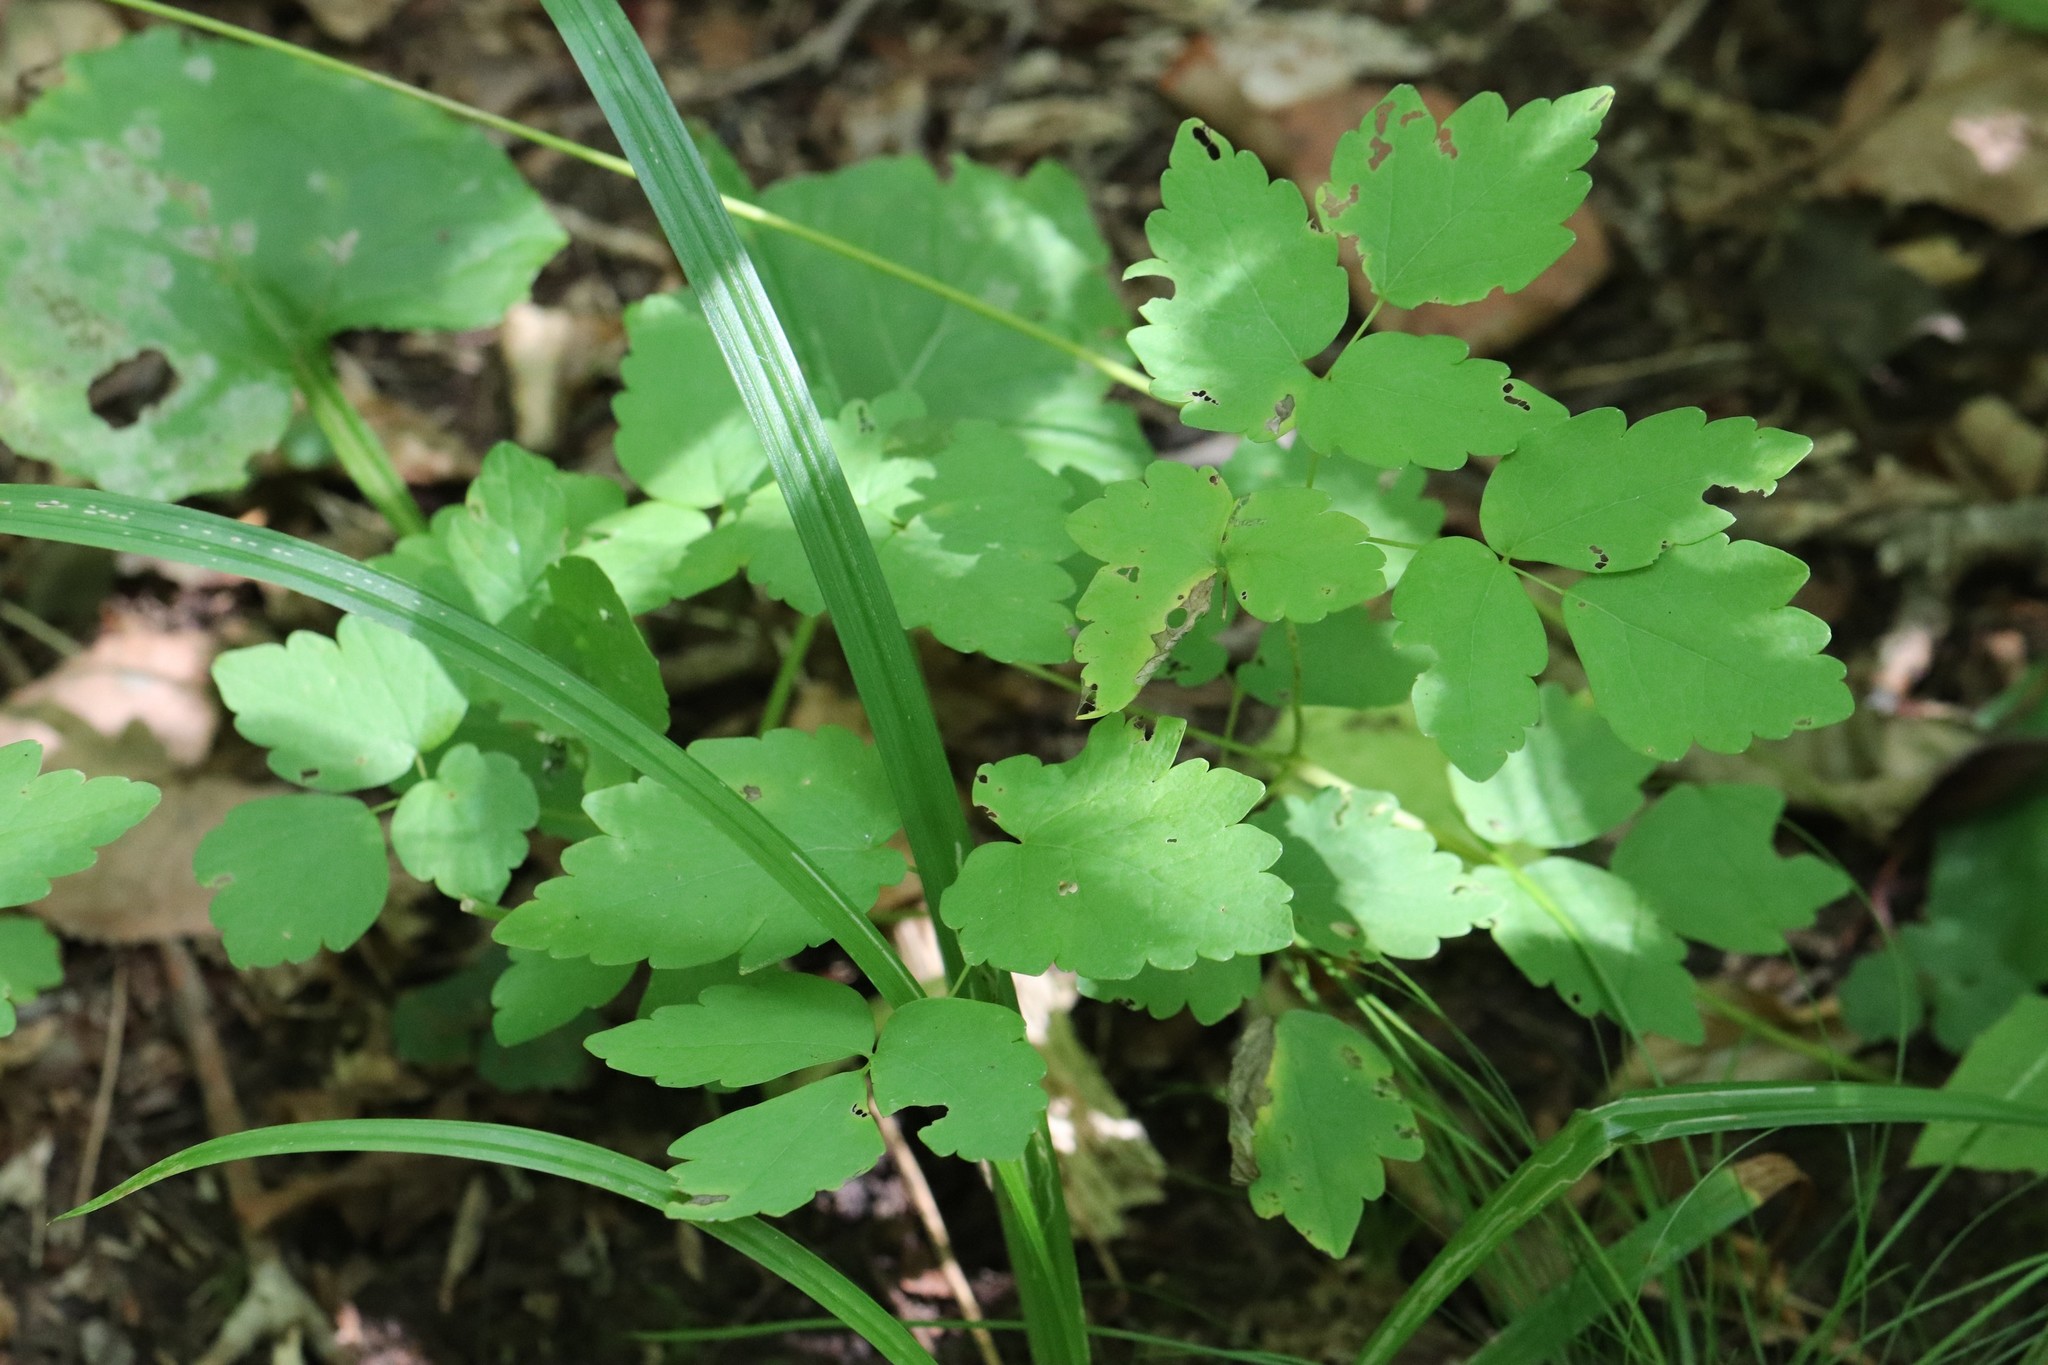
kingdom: Plantae
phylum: Tracheophyta
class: Magnoliopsida
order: Ranunculales
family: Ranunculaceae
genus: Thalictrum
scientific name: Thalictrum tuberiferum
